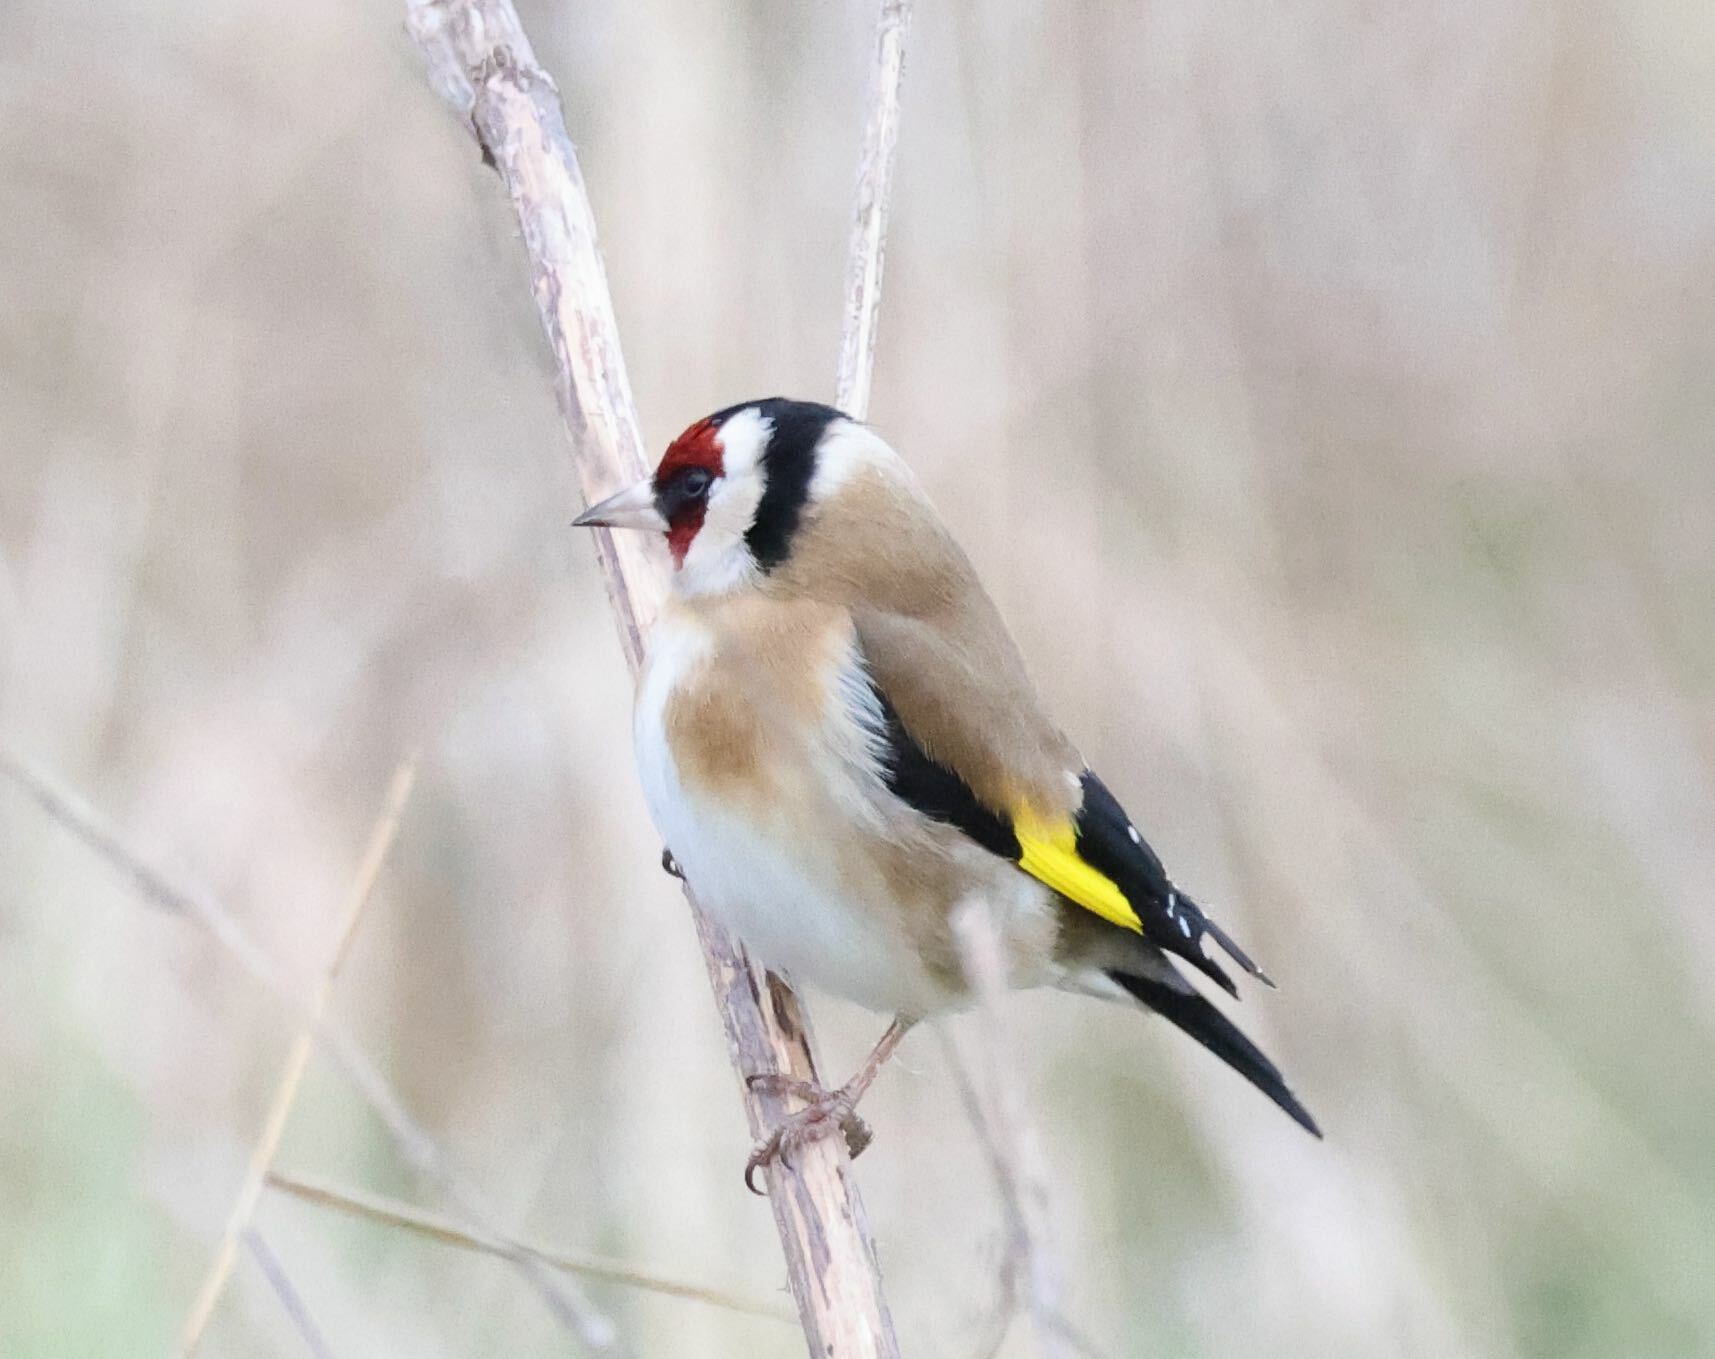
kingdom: Animalia
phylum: Chordata
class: Aves
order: Passeriformes
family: Fringillidae
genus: Carduelis
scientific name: Carduelis carduelis
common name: European goldfinch
